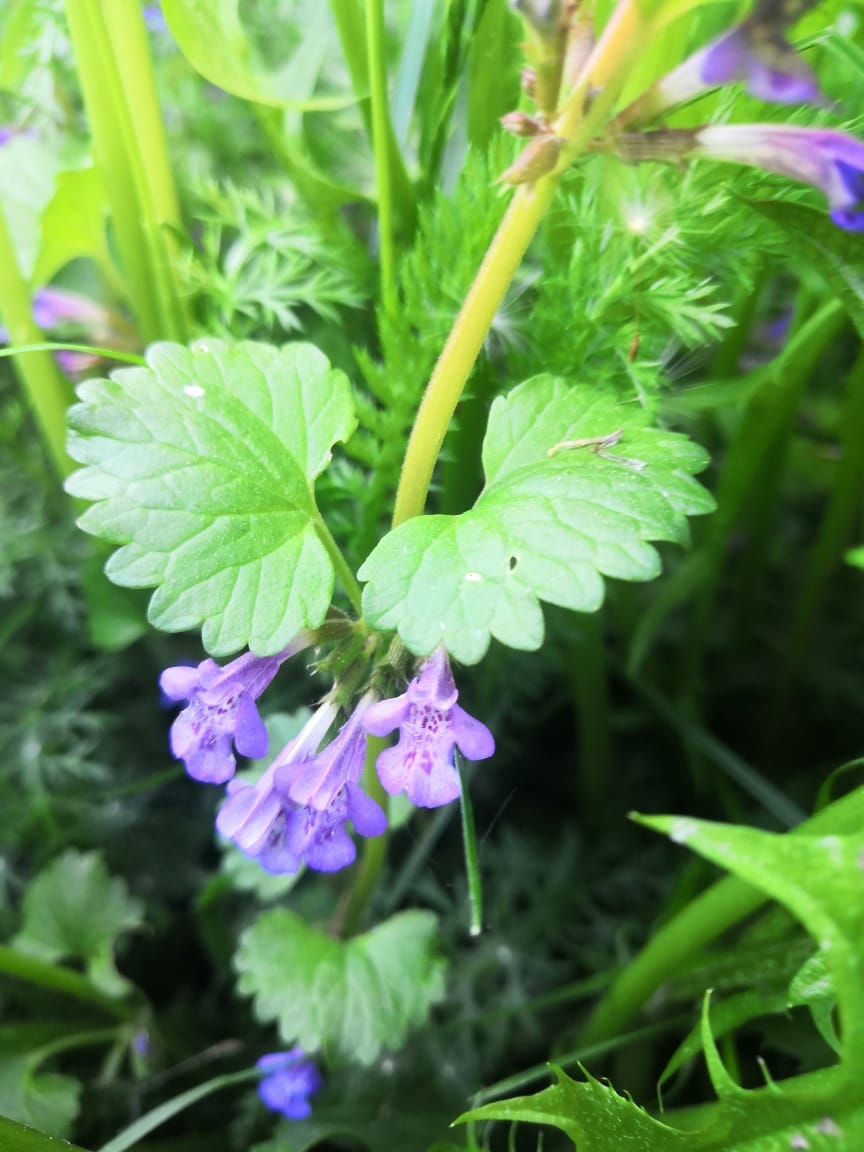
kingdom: Plantae
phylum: Tracheophyta
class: Magnoliopsida
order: Lamiales
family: Lamiaceae
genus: Glechoma
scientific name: Glechoma hederacea
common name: Ground ivy
